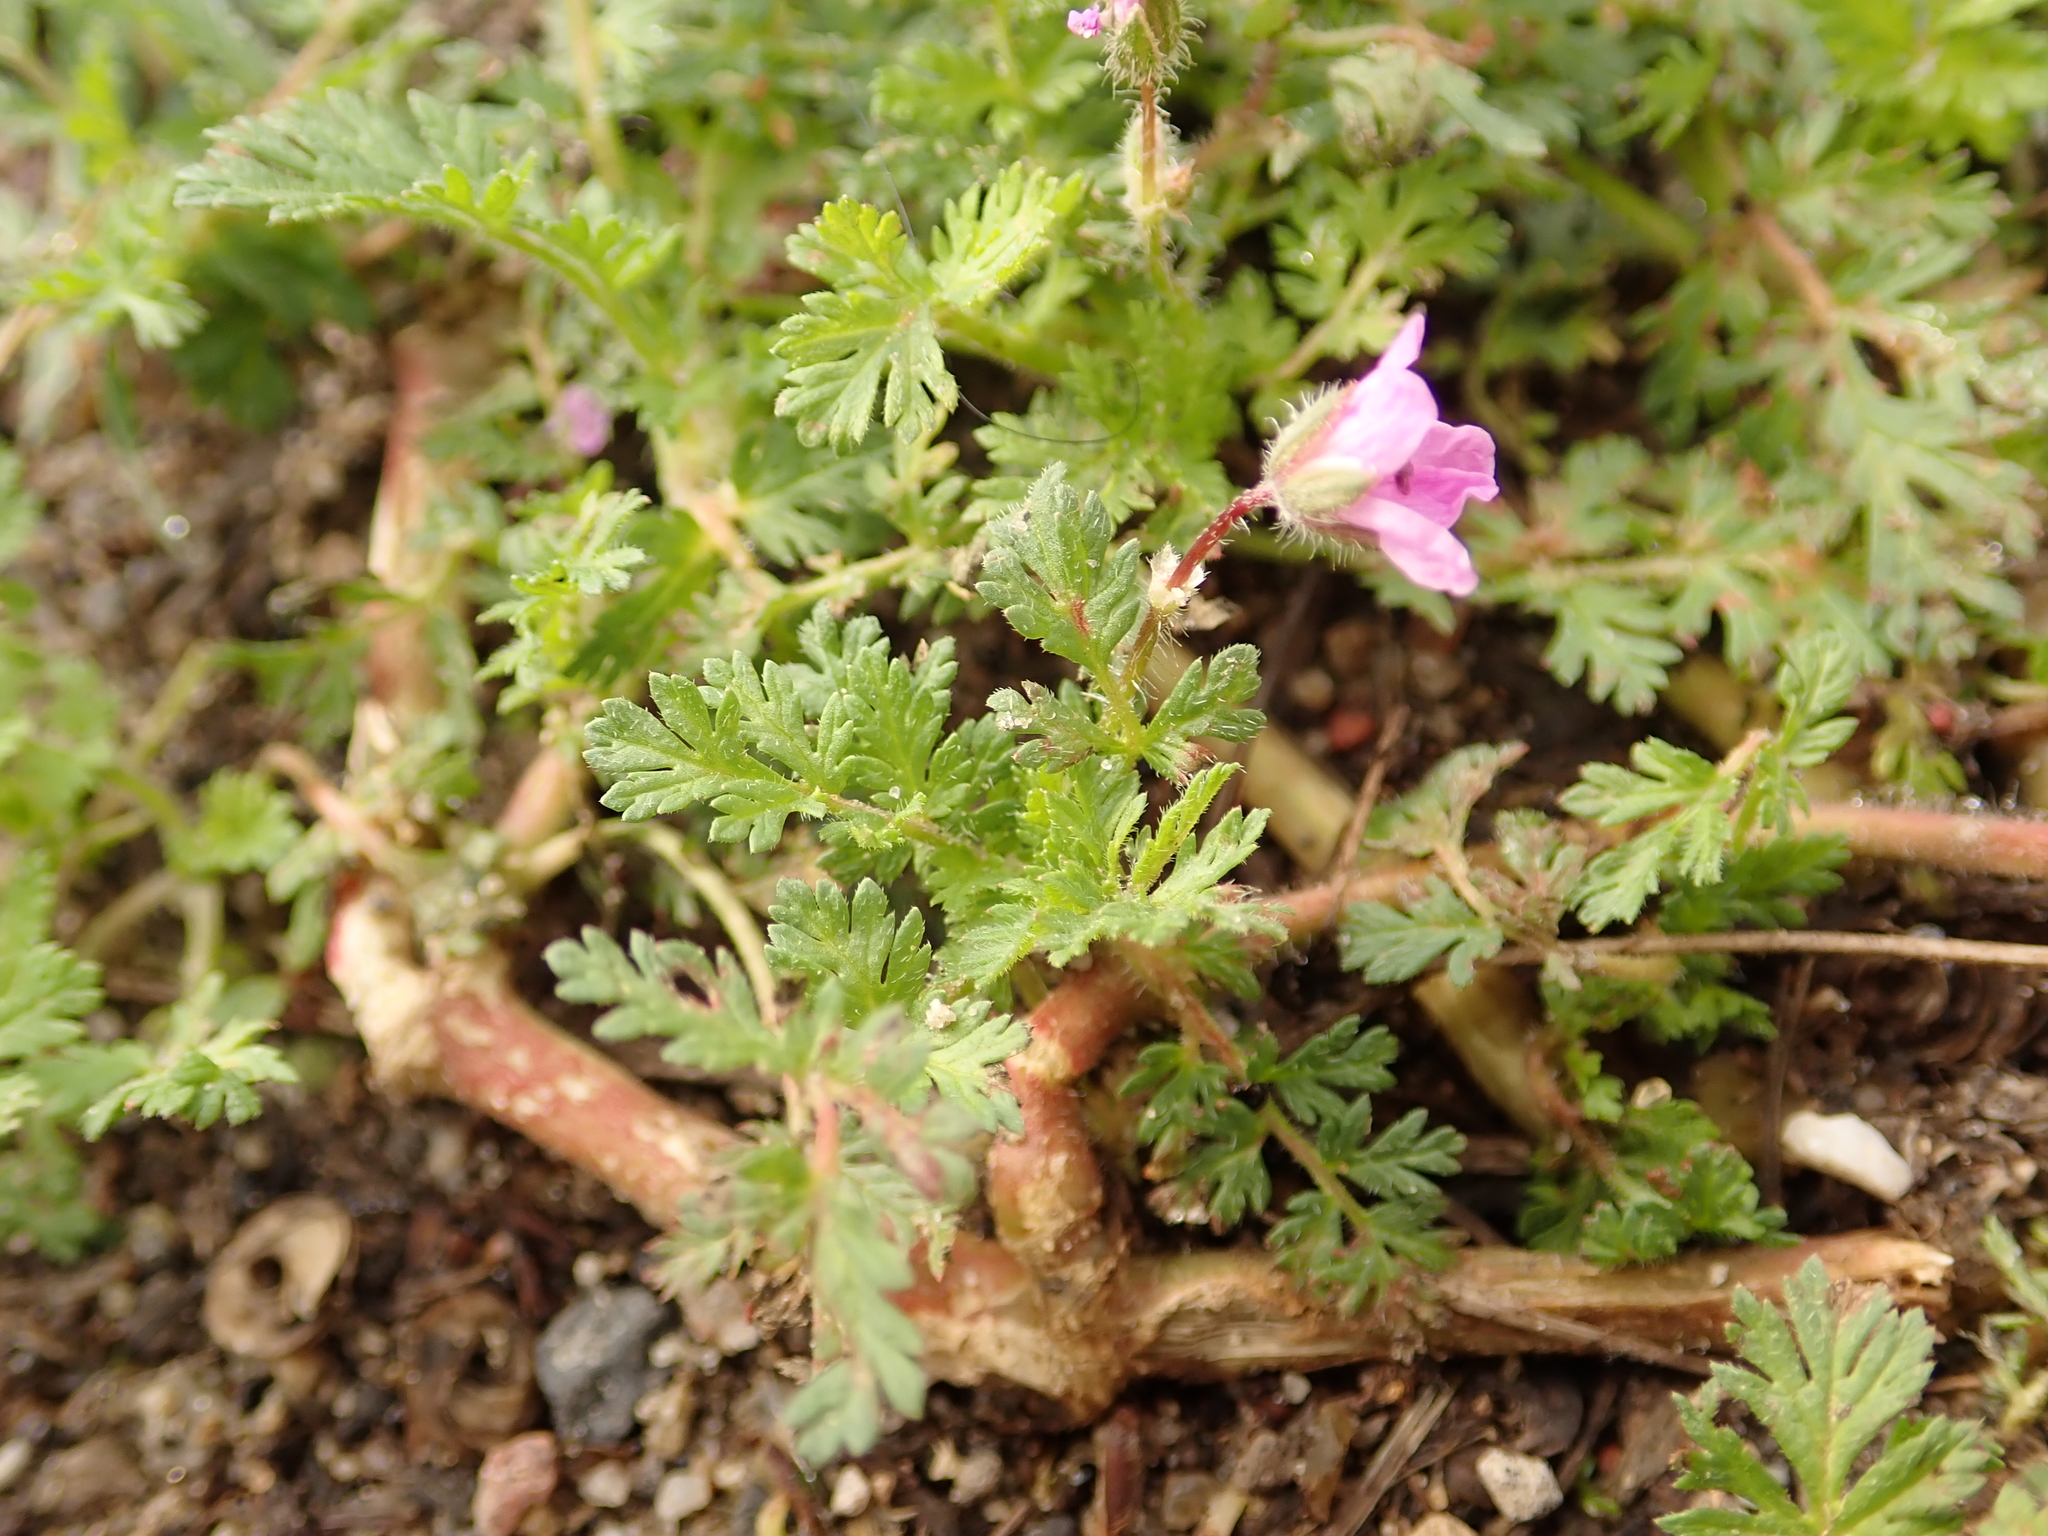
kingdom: Plantae
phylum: Tracheophyta
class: Magnoliopsida
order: Geraniales
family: Geraniaceae
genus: Erodium
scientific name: Erodium cicutarium
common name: Common stork's-bill
